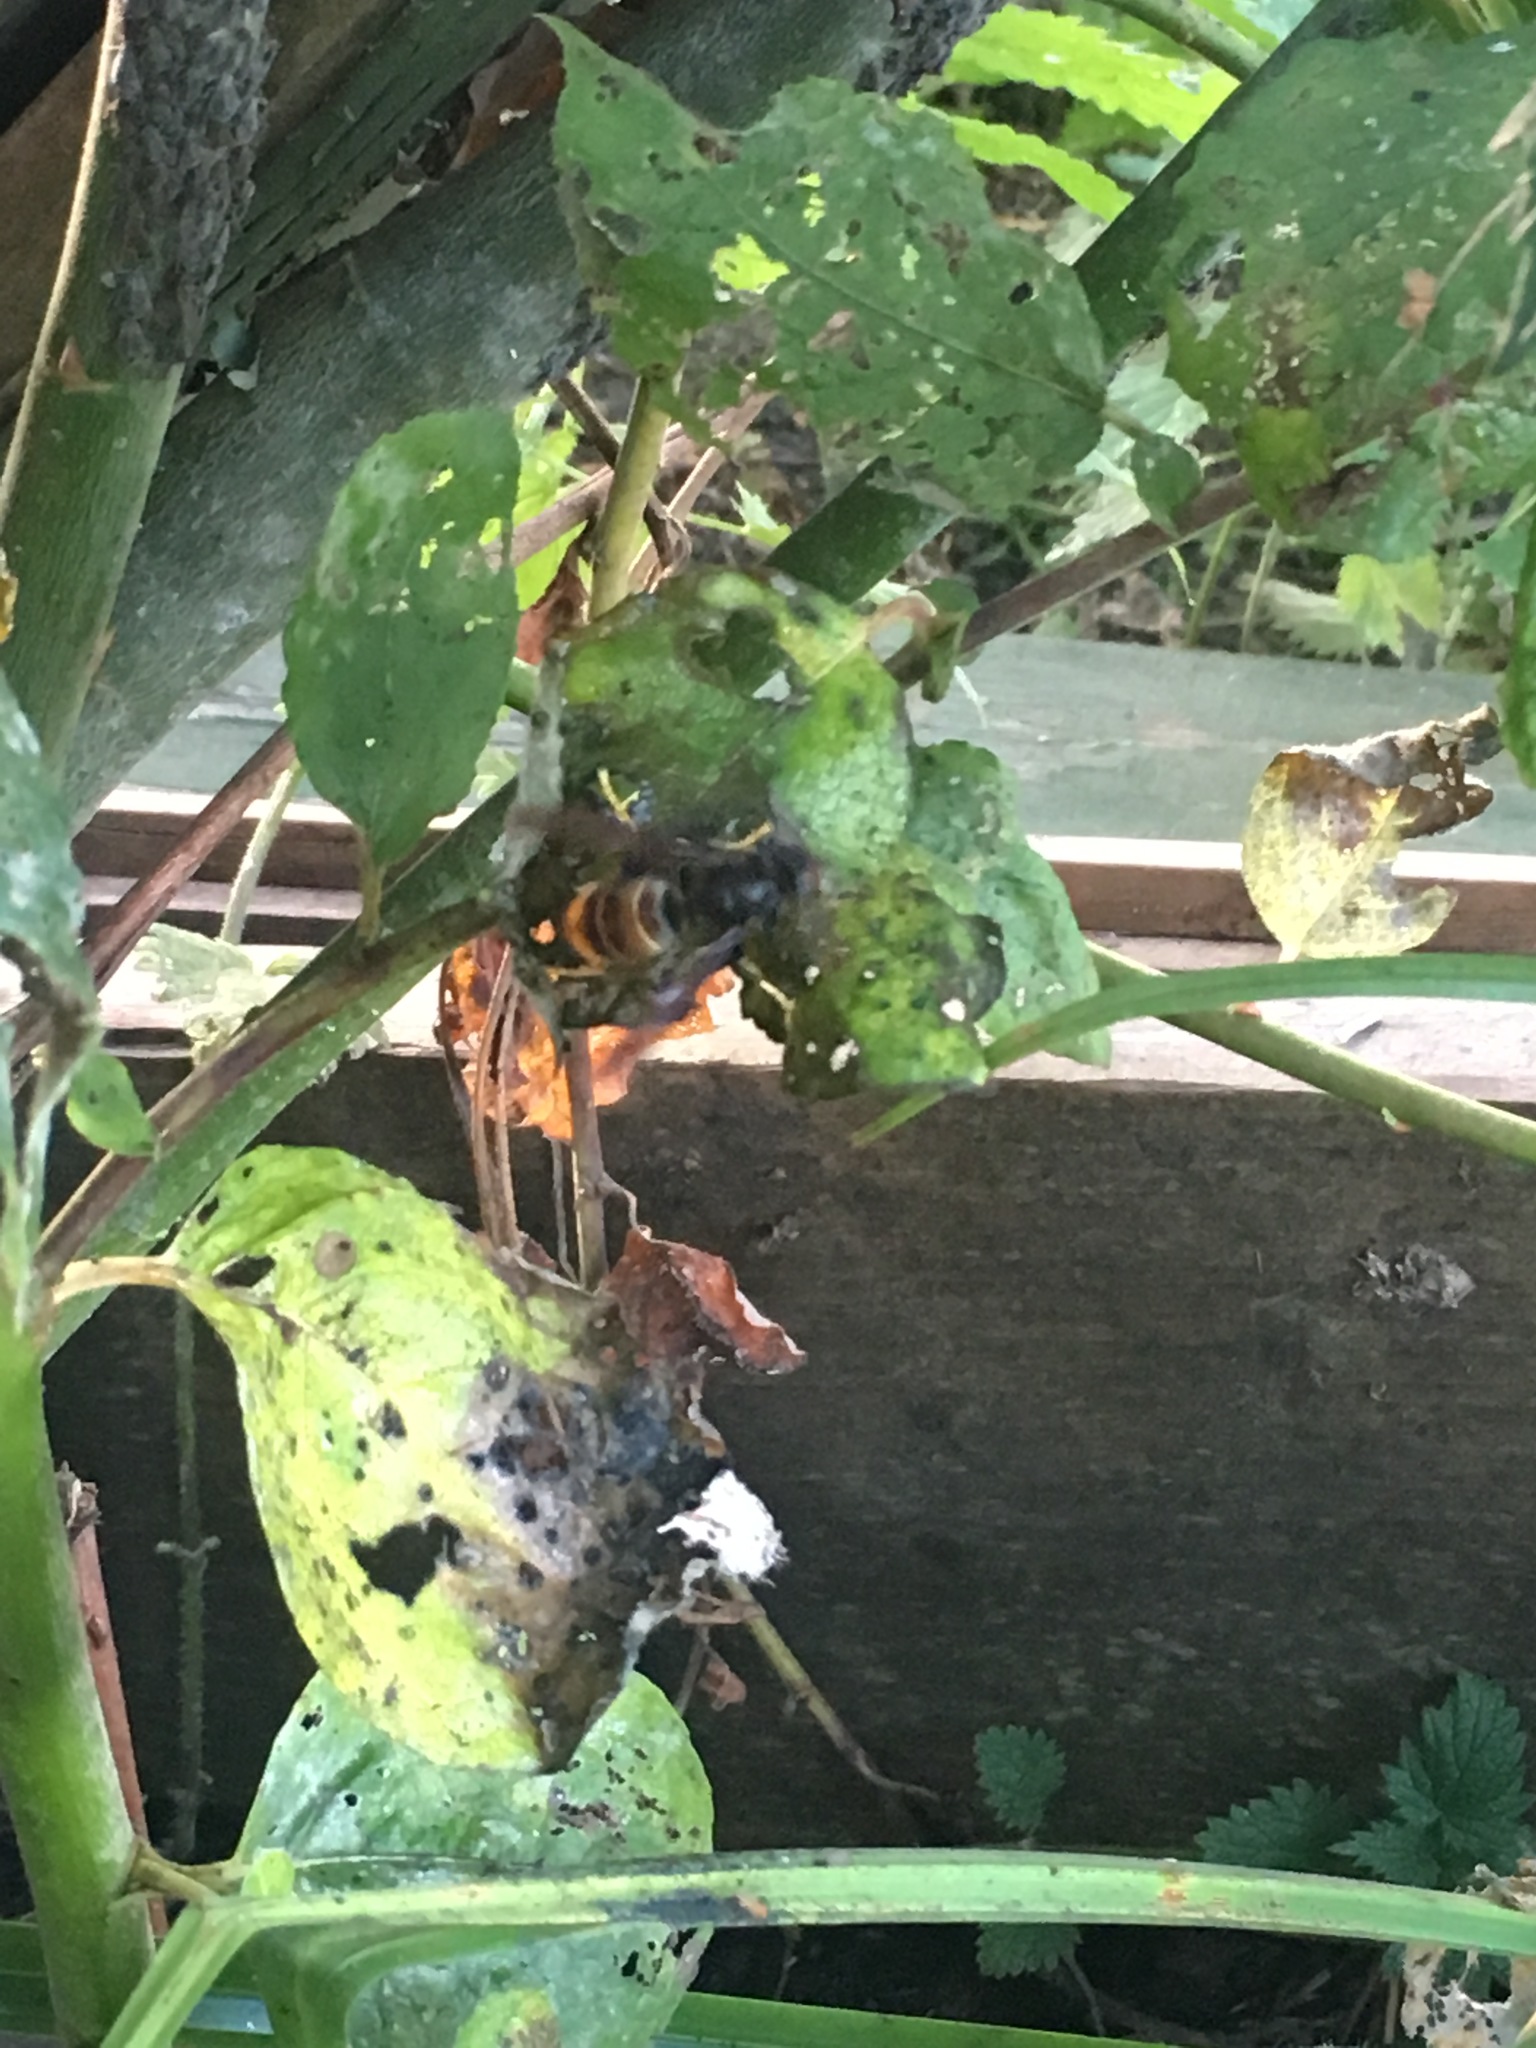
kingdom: Animalia
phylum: Arthropoda
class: Insecta
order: Hymenoptera
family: Vespidae
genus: Vespa
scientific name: Vespa velutina
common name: Asian hornet
